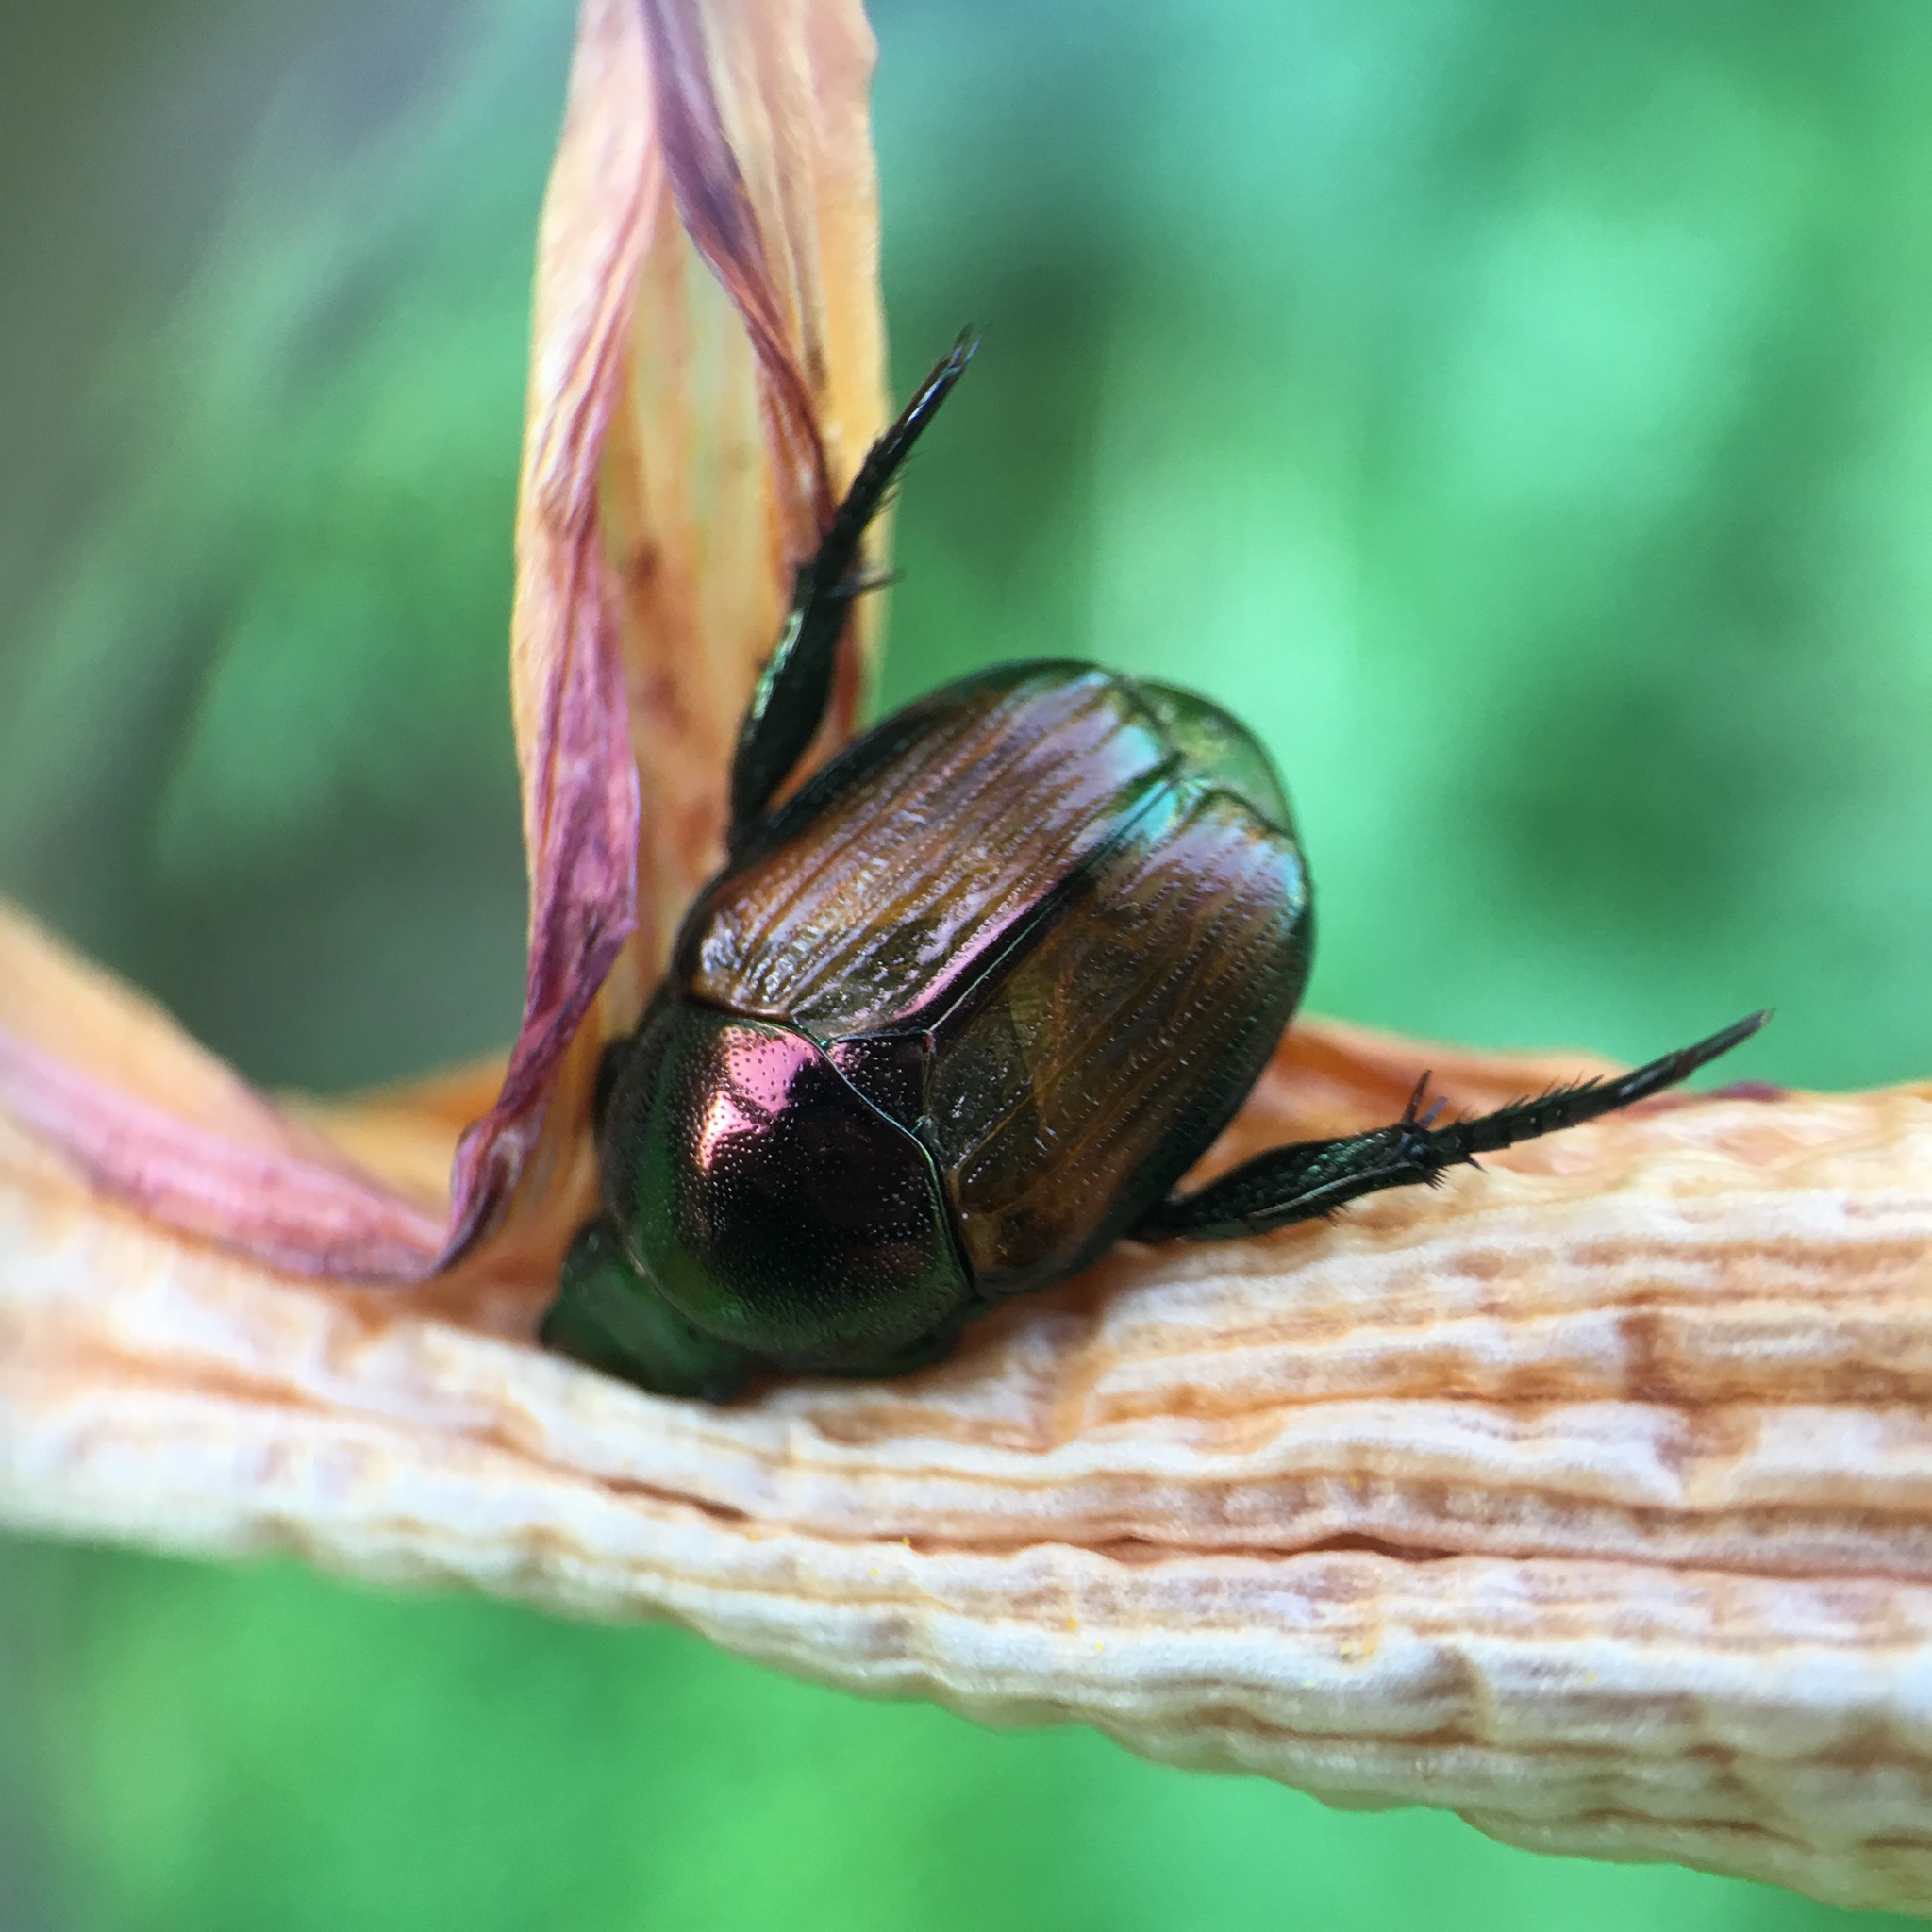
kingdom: Animalia
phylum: Arthropoda
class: Insecta
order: Coleoptera
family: Scarabaeidae
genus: Popillia
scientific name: Popillia japonica
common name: Japanese beetle
